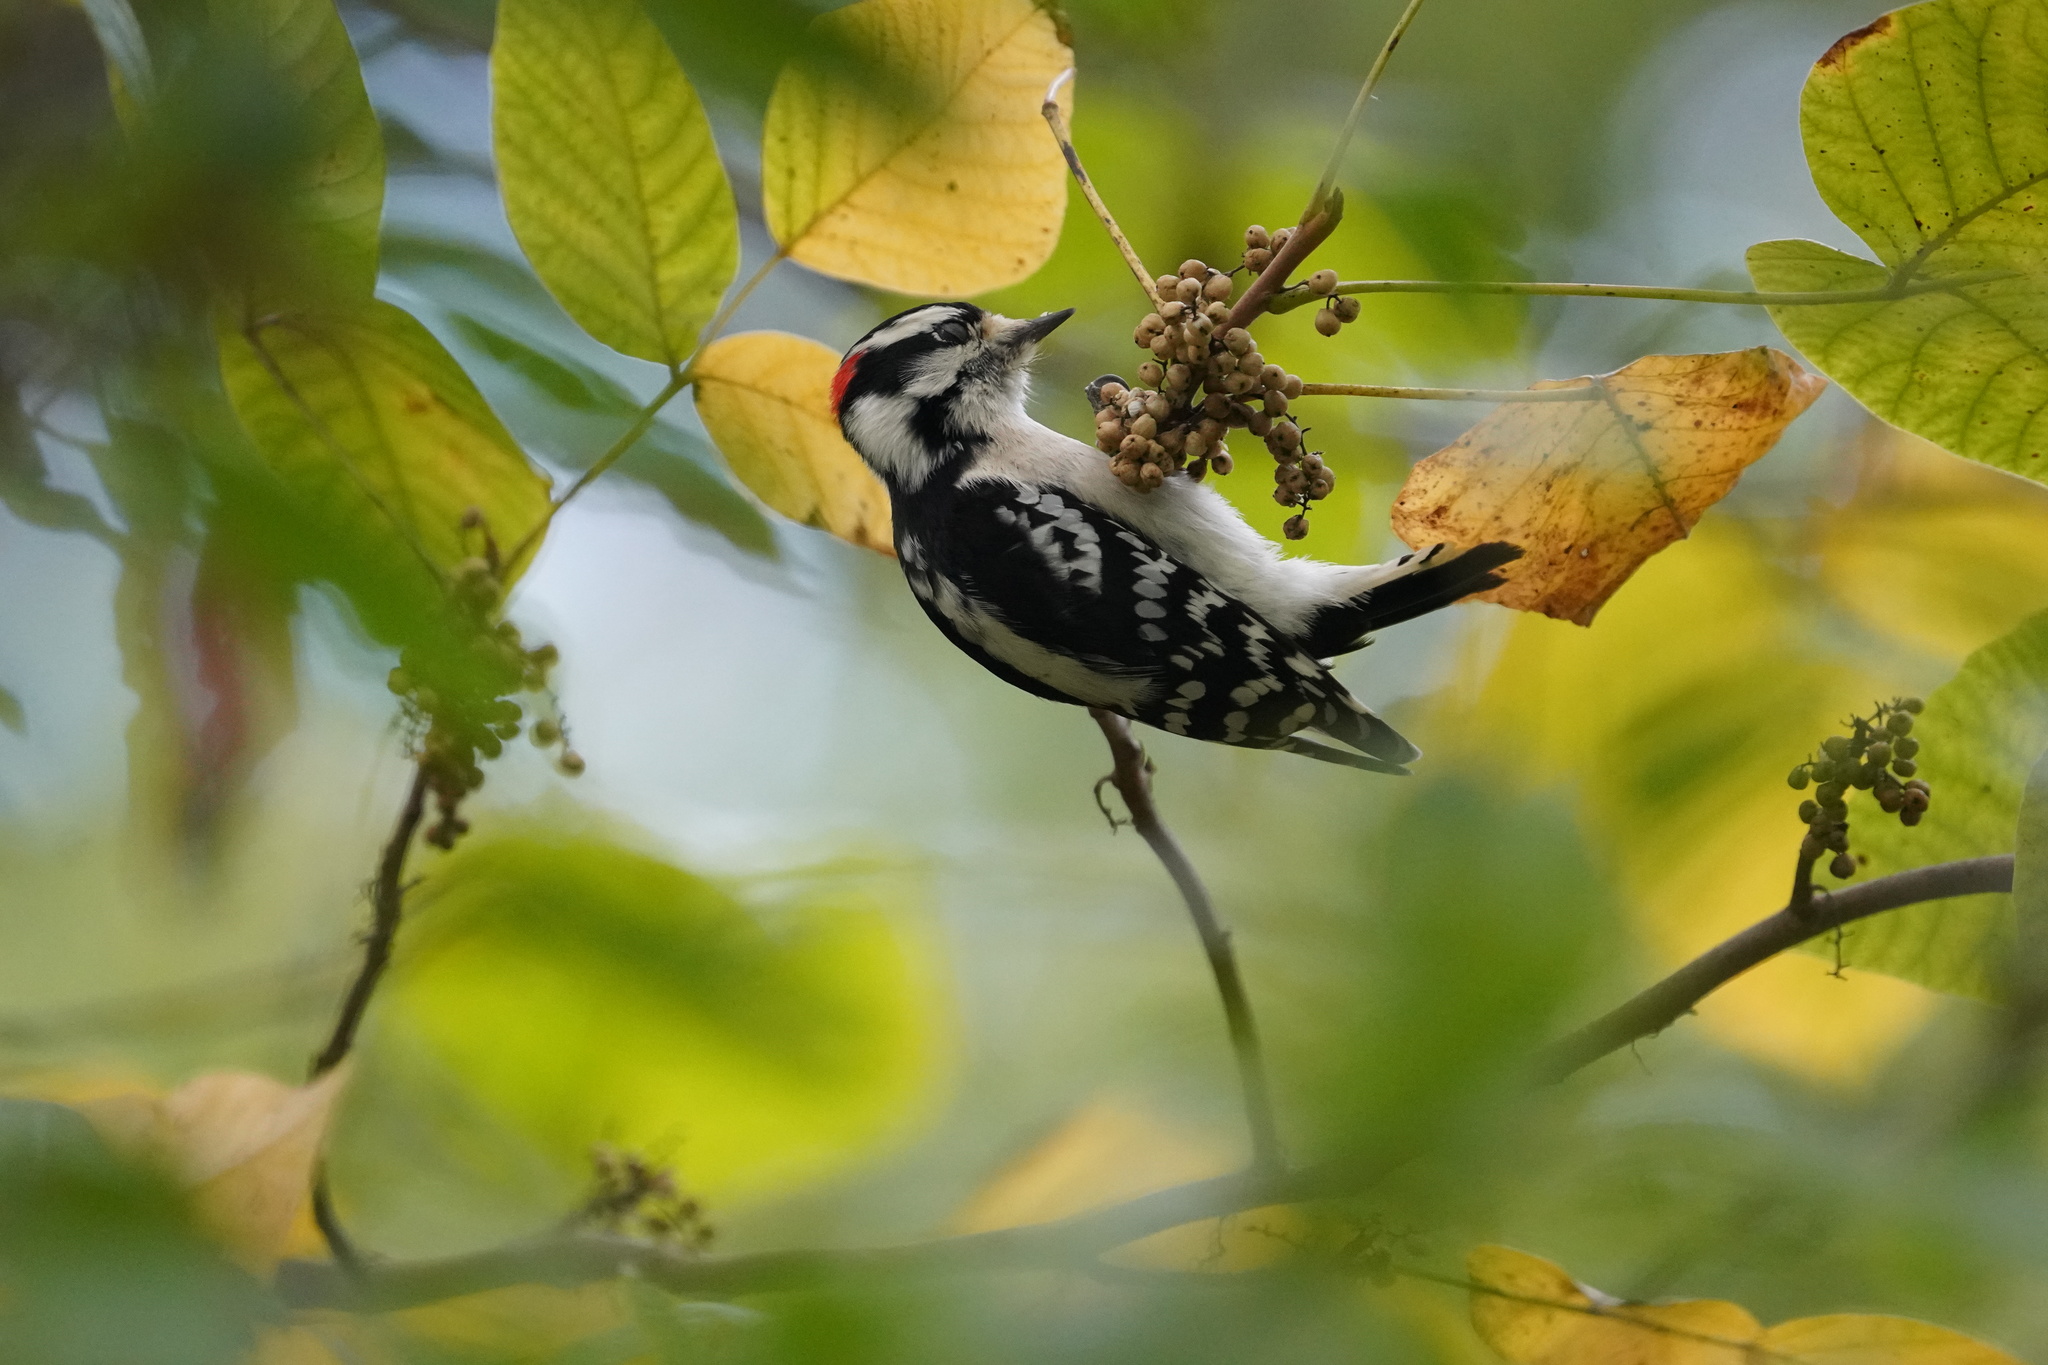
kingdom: Animalia
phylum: Chordata
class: Aves
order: Piciformes
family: Picidae
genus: Dryobates
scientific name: Dryobates pubescens
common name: Downy woodpecker
